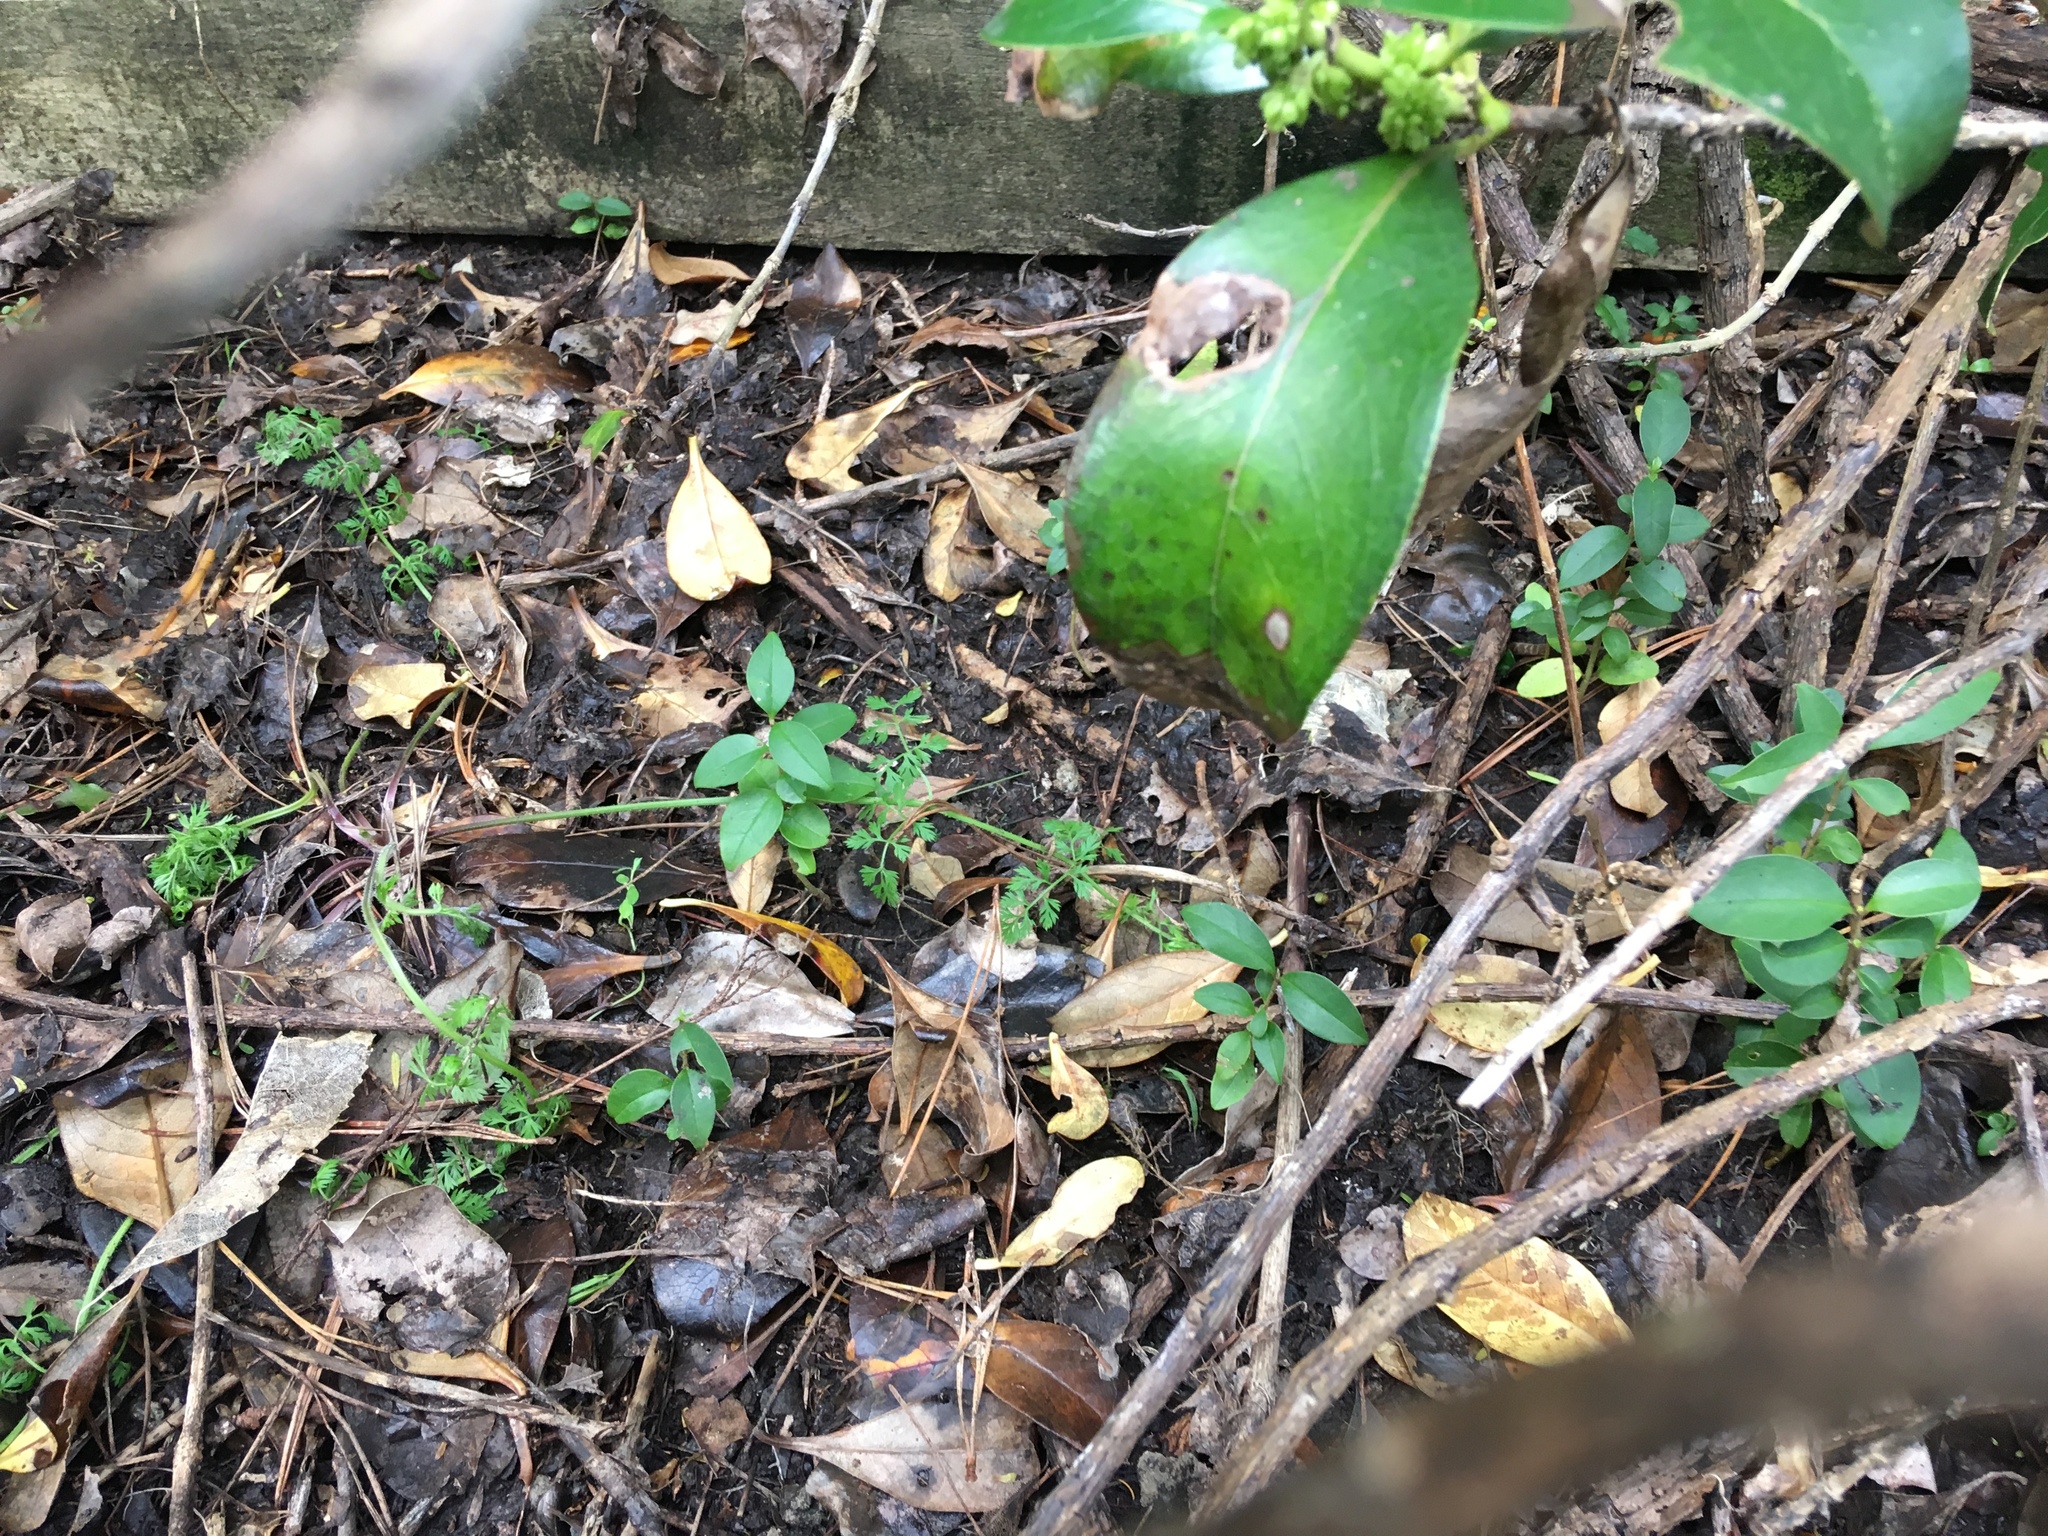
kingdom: Plantae
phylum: Tracheophyta
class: Magnoliopsida
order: Lamiales
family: Oleaceae
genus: Ligustrum
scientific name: Ligustrum lucidum
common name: Glossy privet
